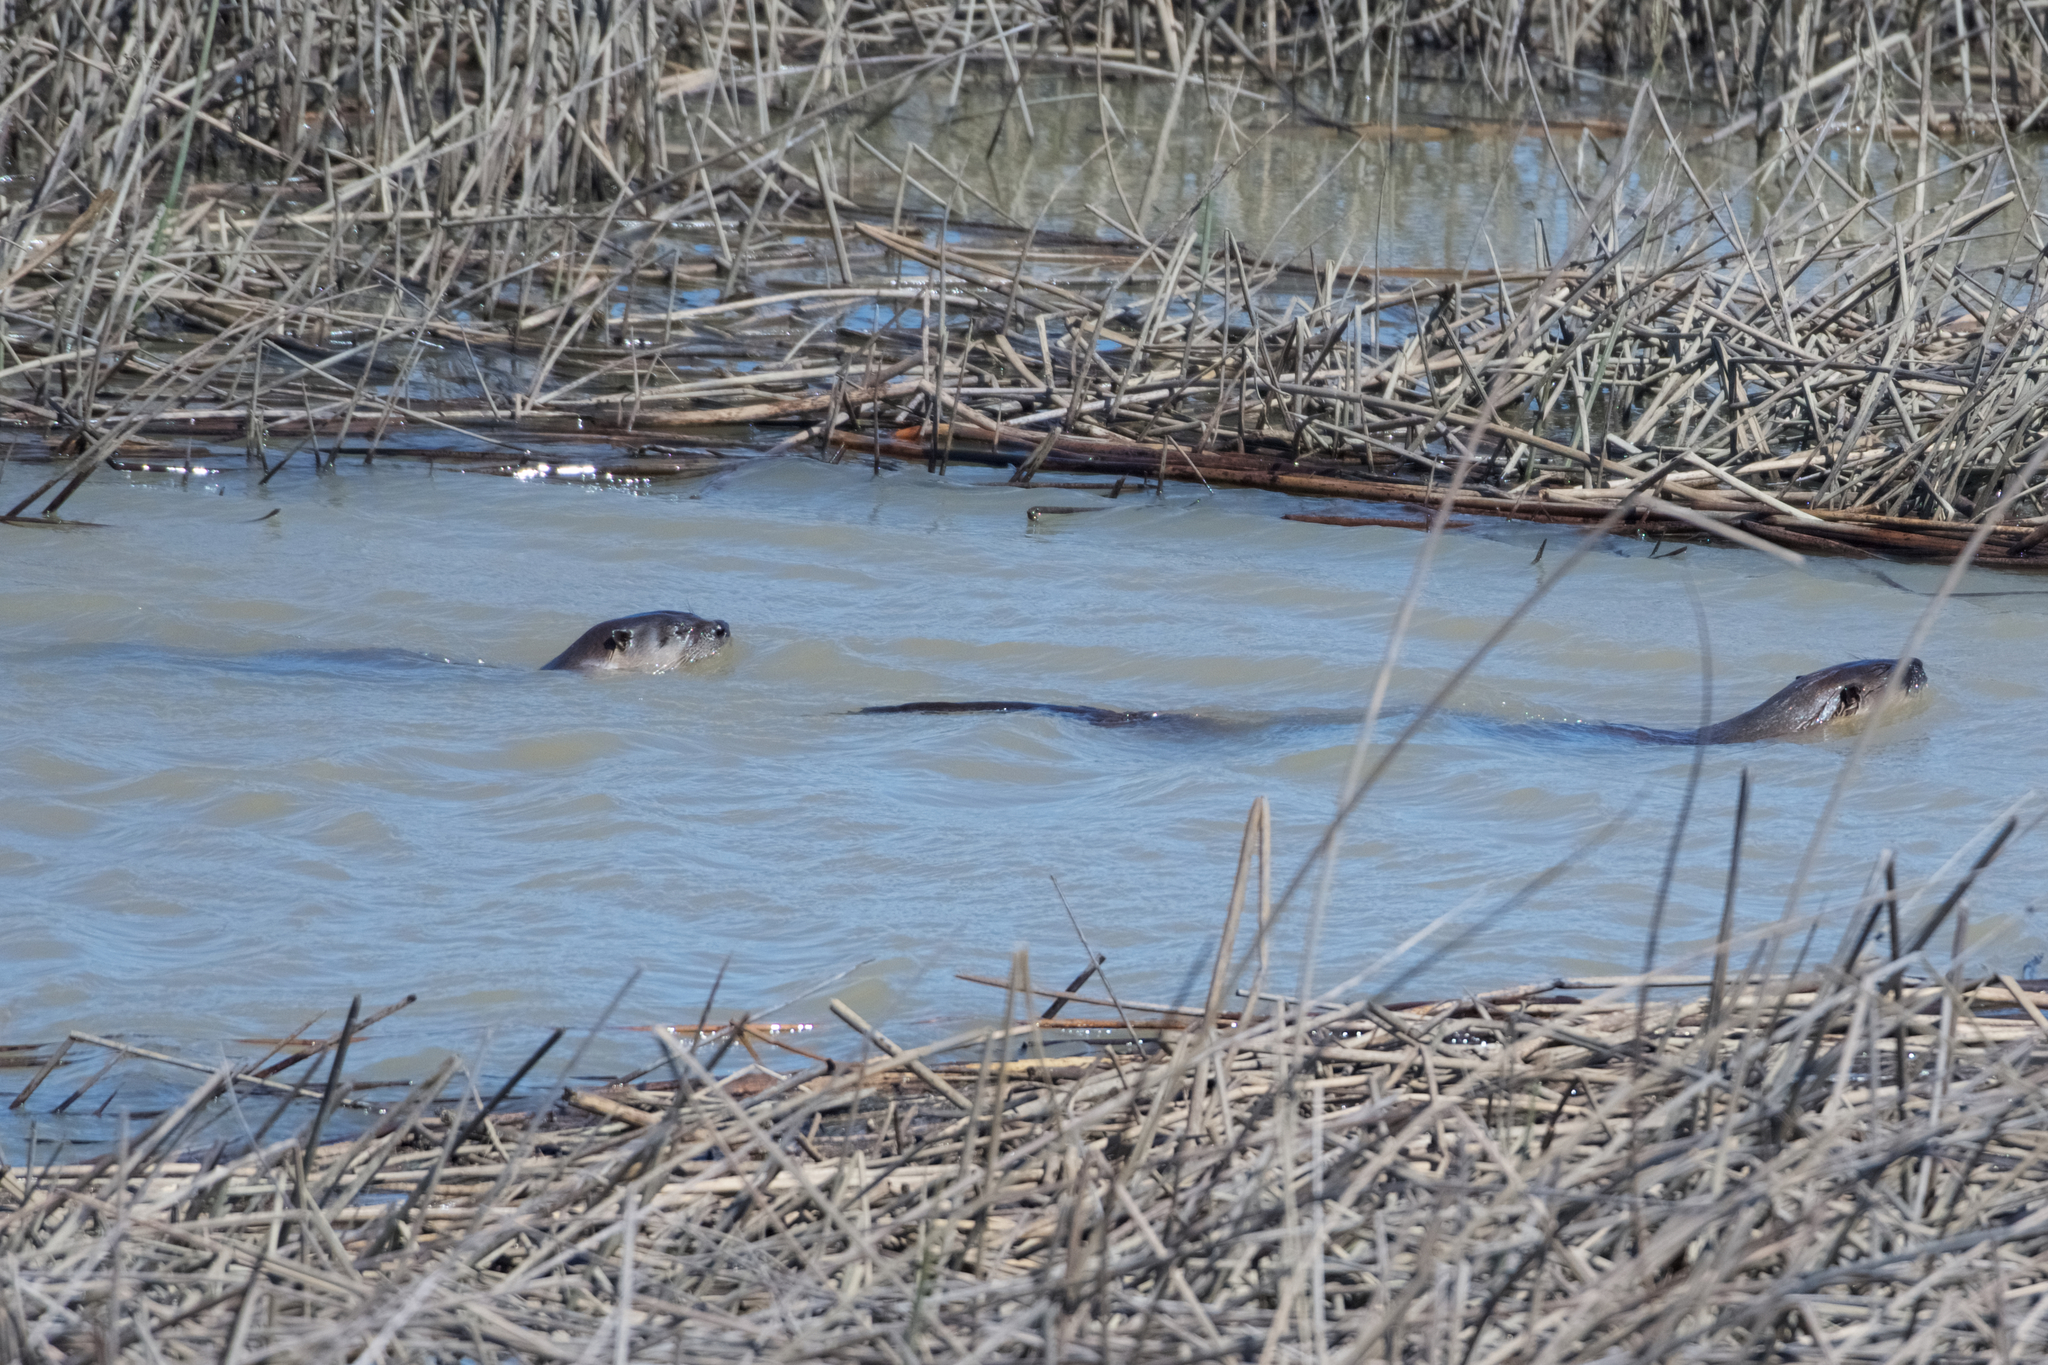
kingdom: Animalia
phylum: Chordata
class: Mammalia
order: Carnivora
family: Mustelidae
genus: Lontra
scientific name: Lontra canadensis
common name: North american river otter
